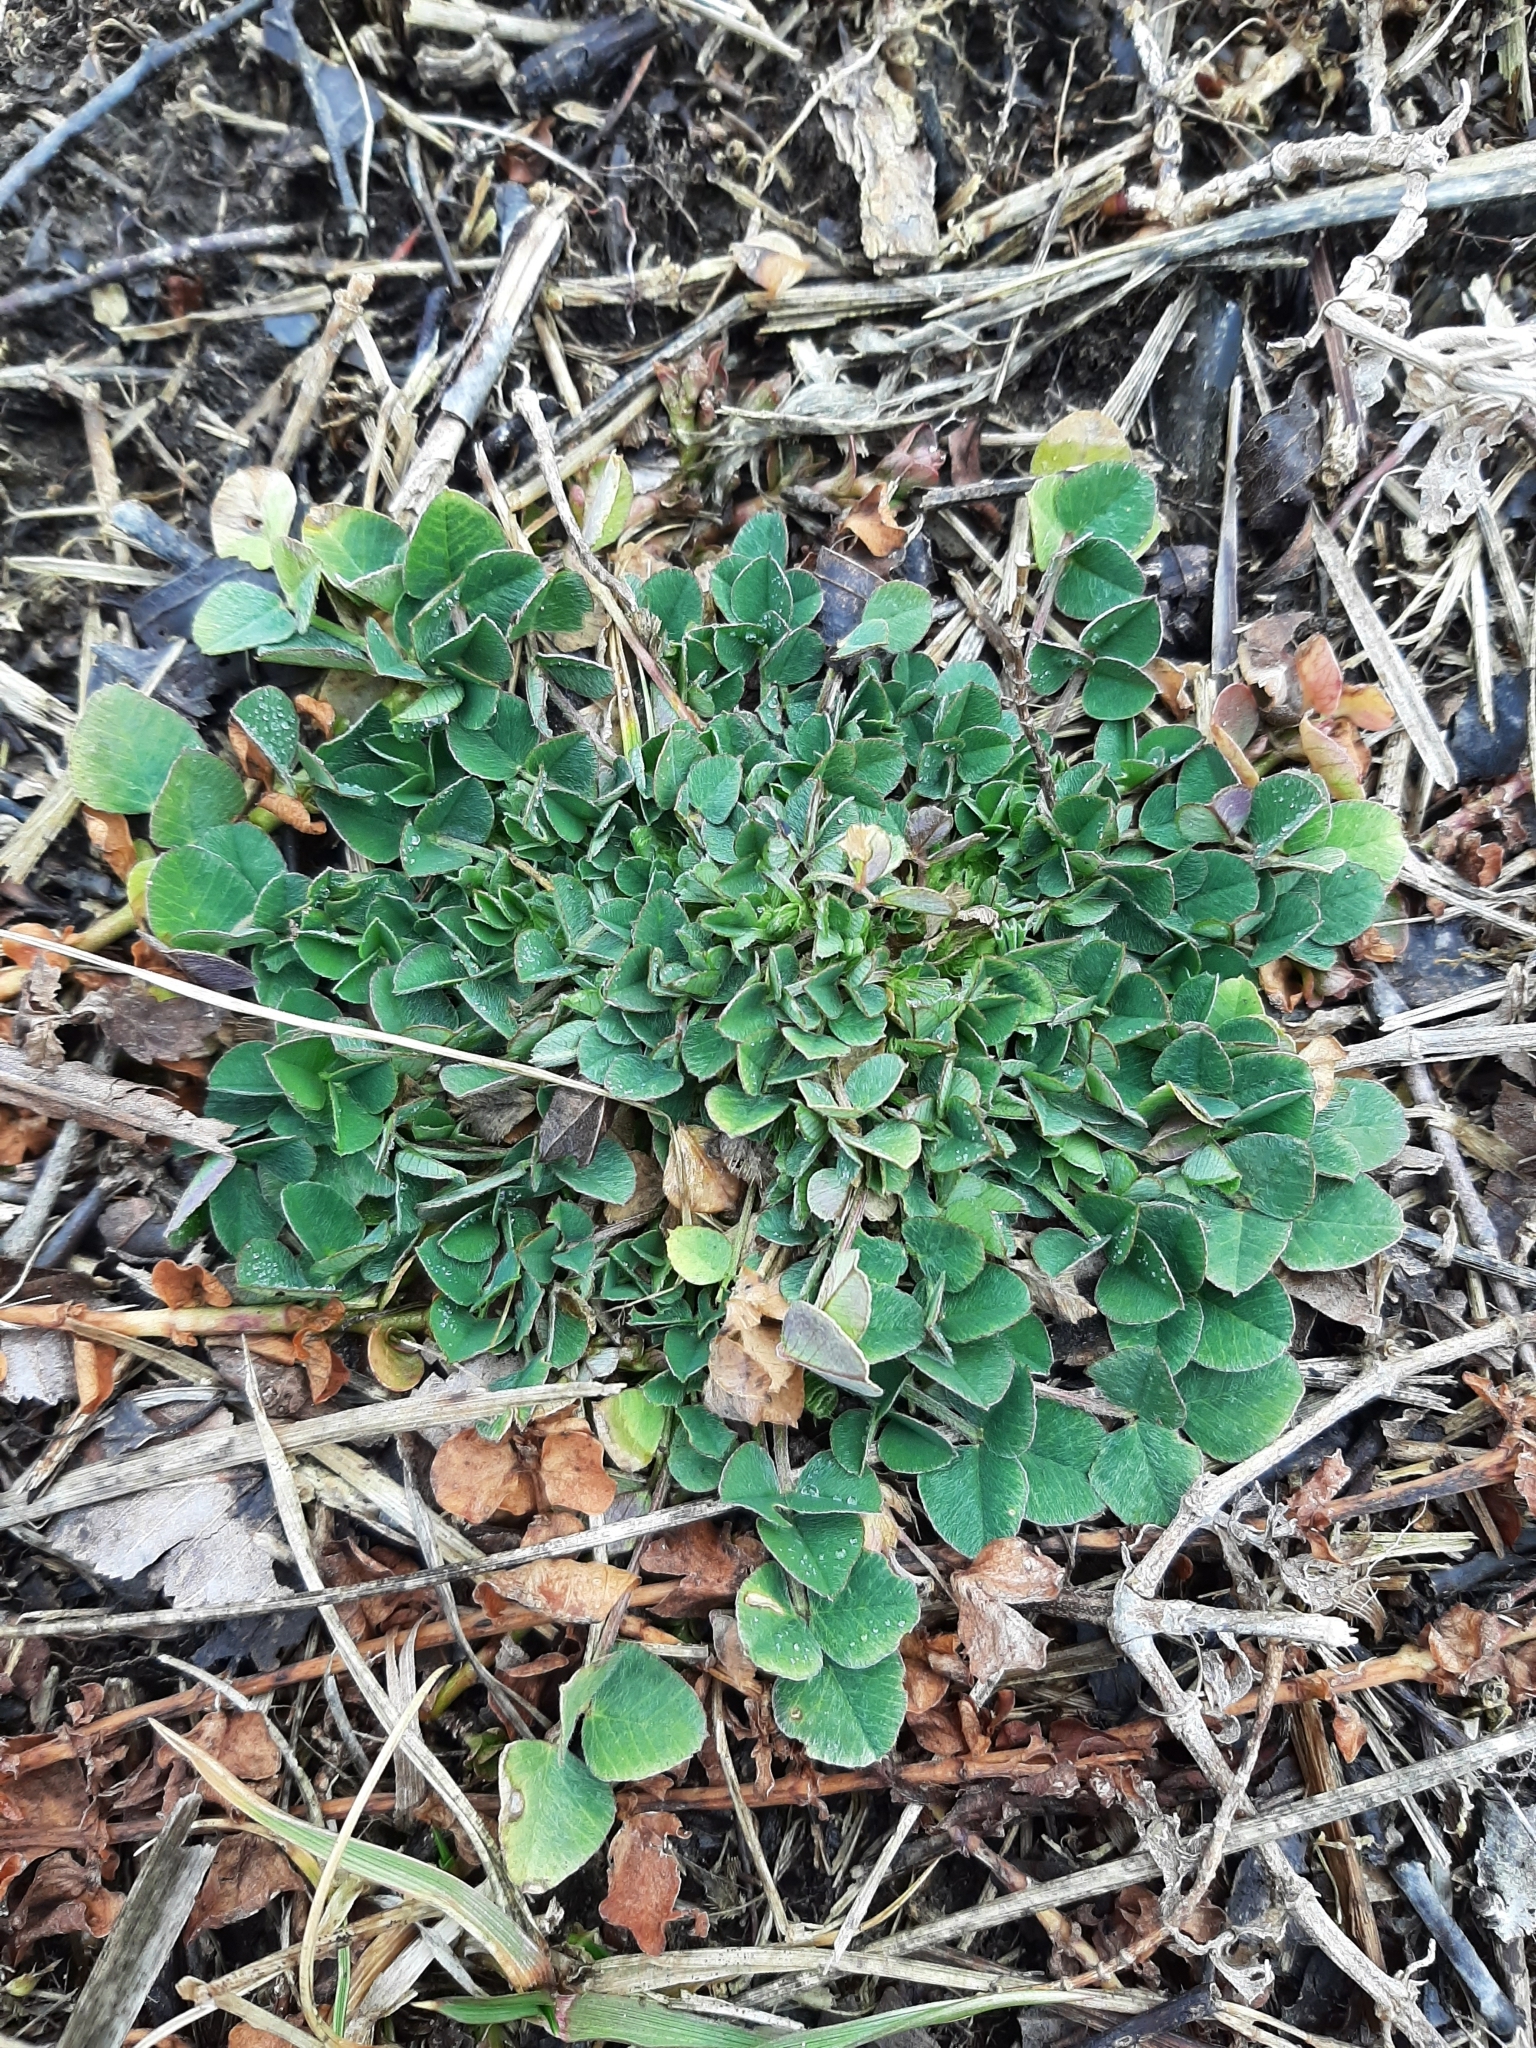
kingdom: Plantae
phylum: Tracheophyta
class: Magnoliopsida
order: Fabales
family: Fabaceae
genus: Medicago
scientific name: Medicago lupulina
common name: Black medick
